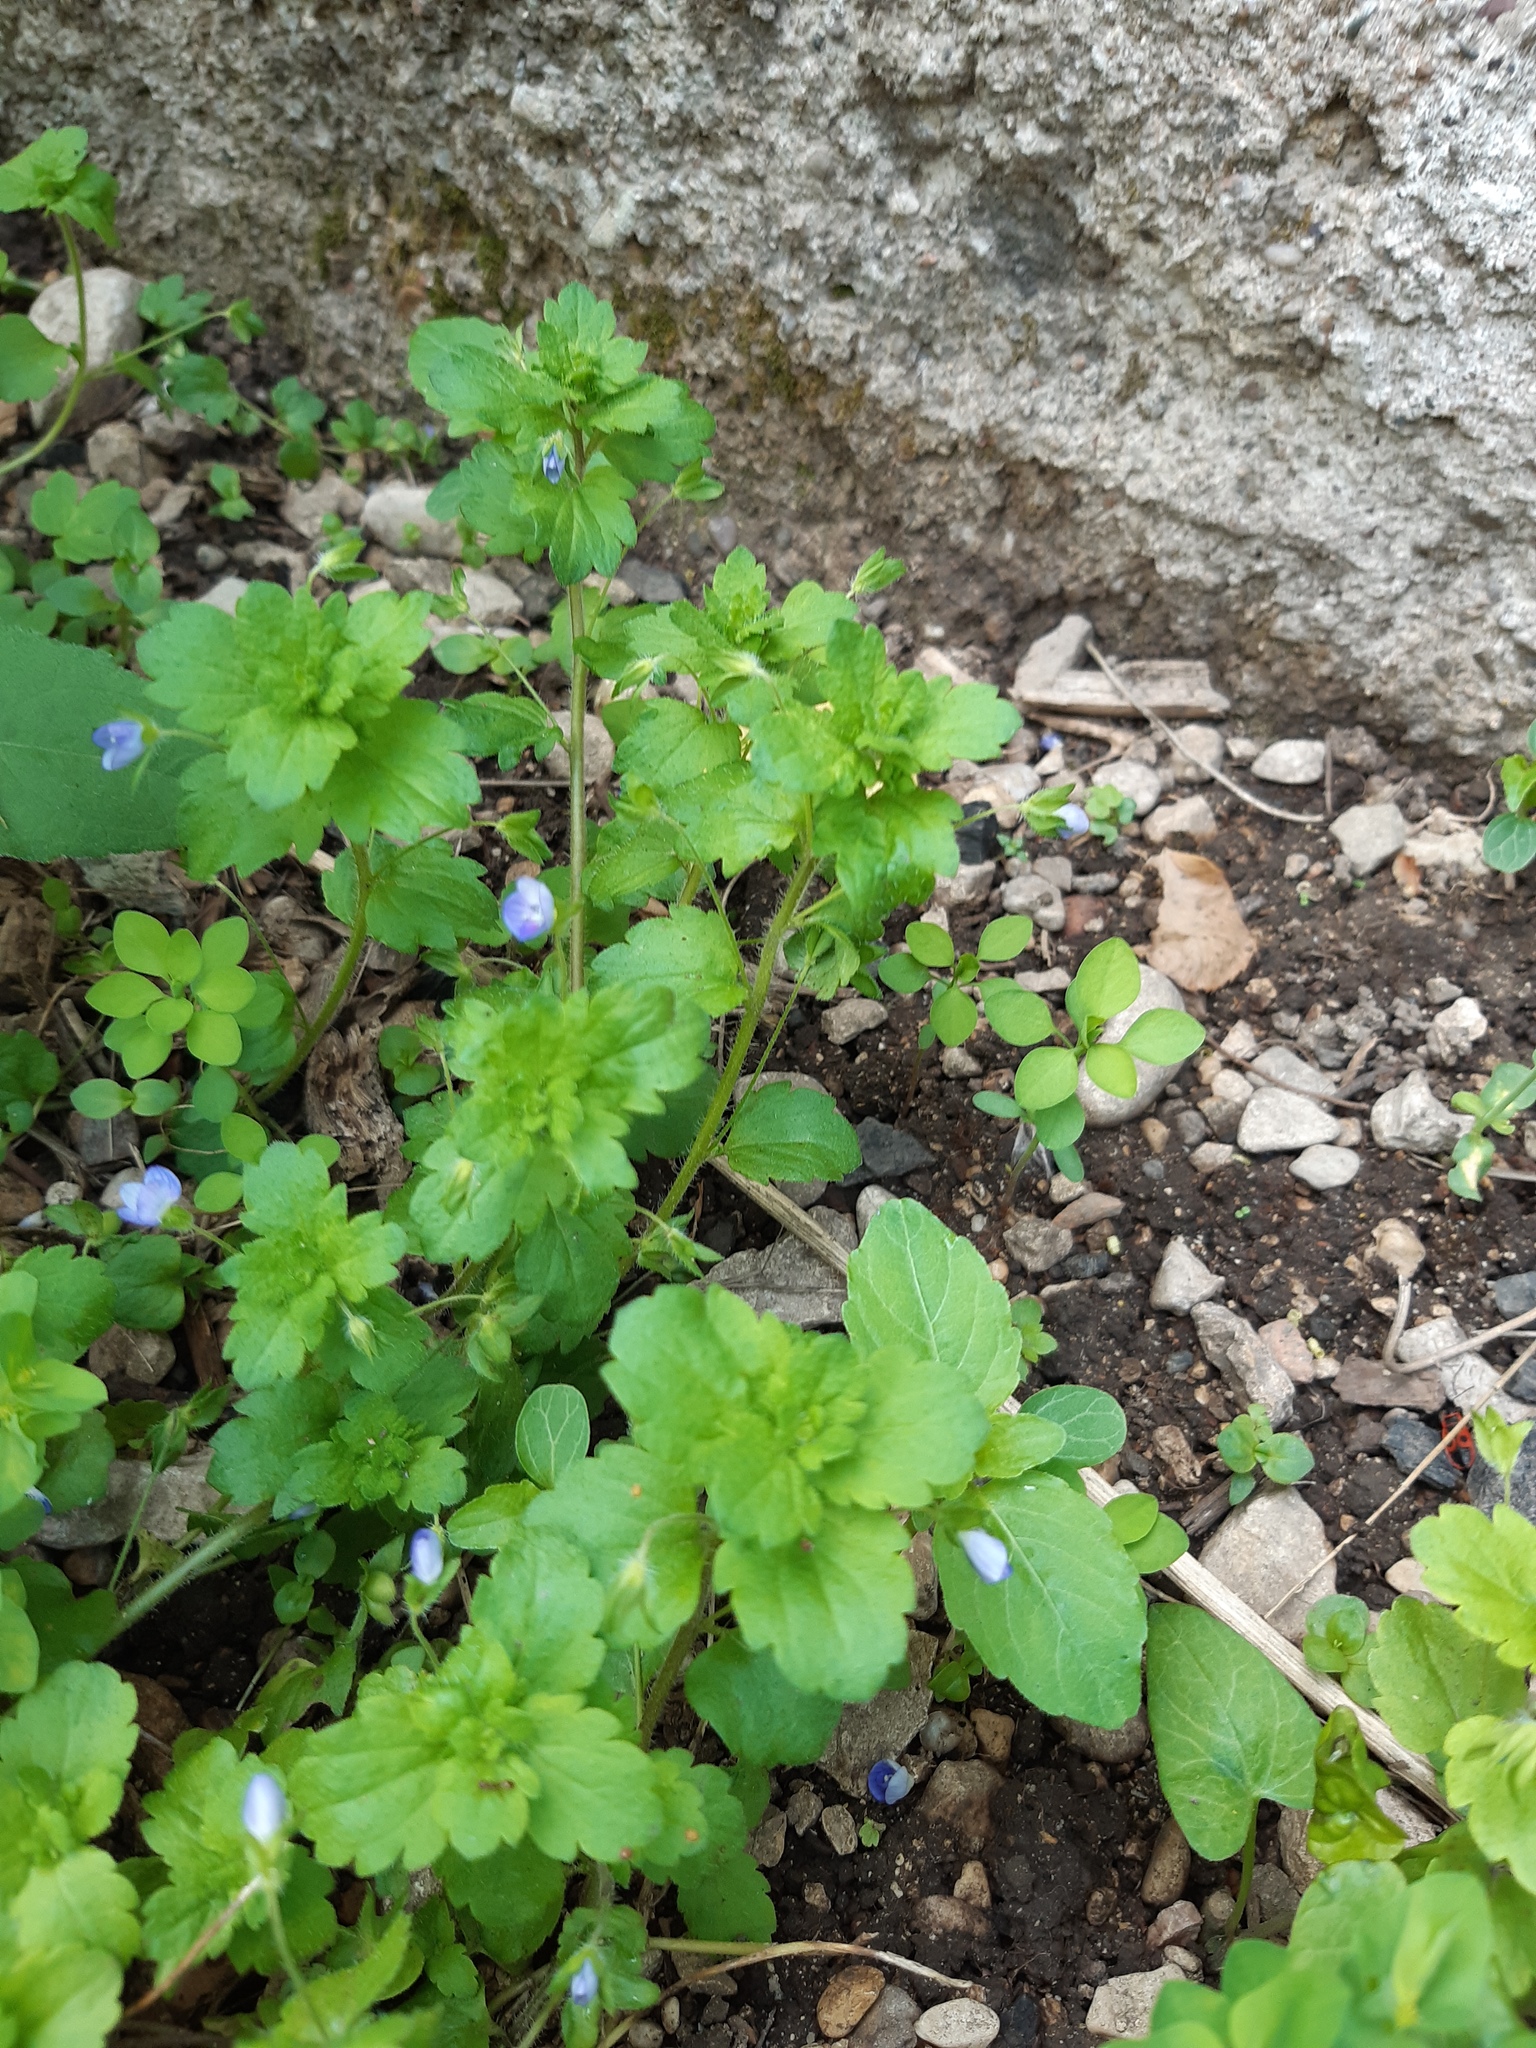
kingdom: Plantae
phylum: Tracheophyta
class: Magnoliopsida
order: Lamiales
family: Plantaginaceae
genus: Veronica
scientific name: Veronica persica
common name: Common field-speedwell
